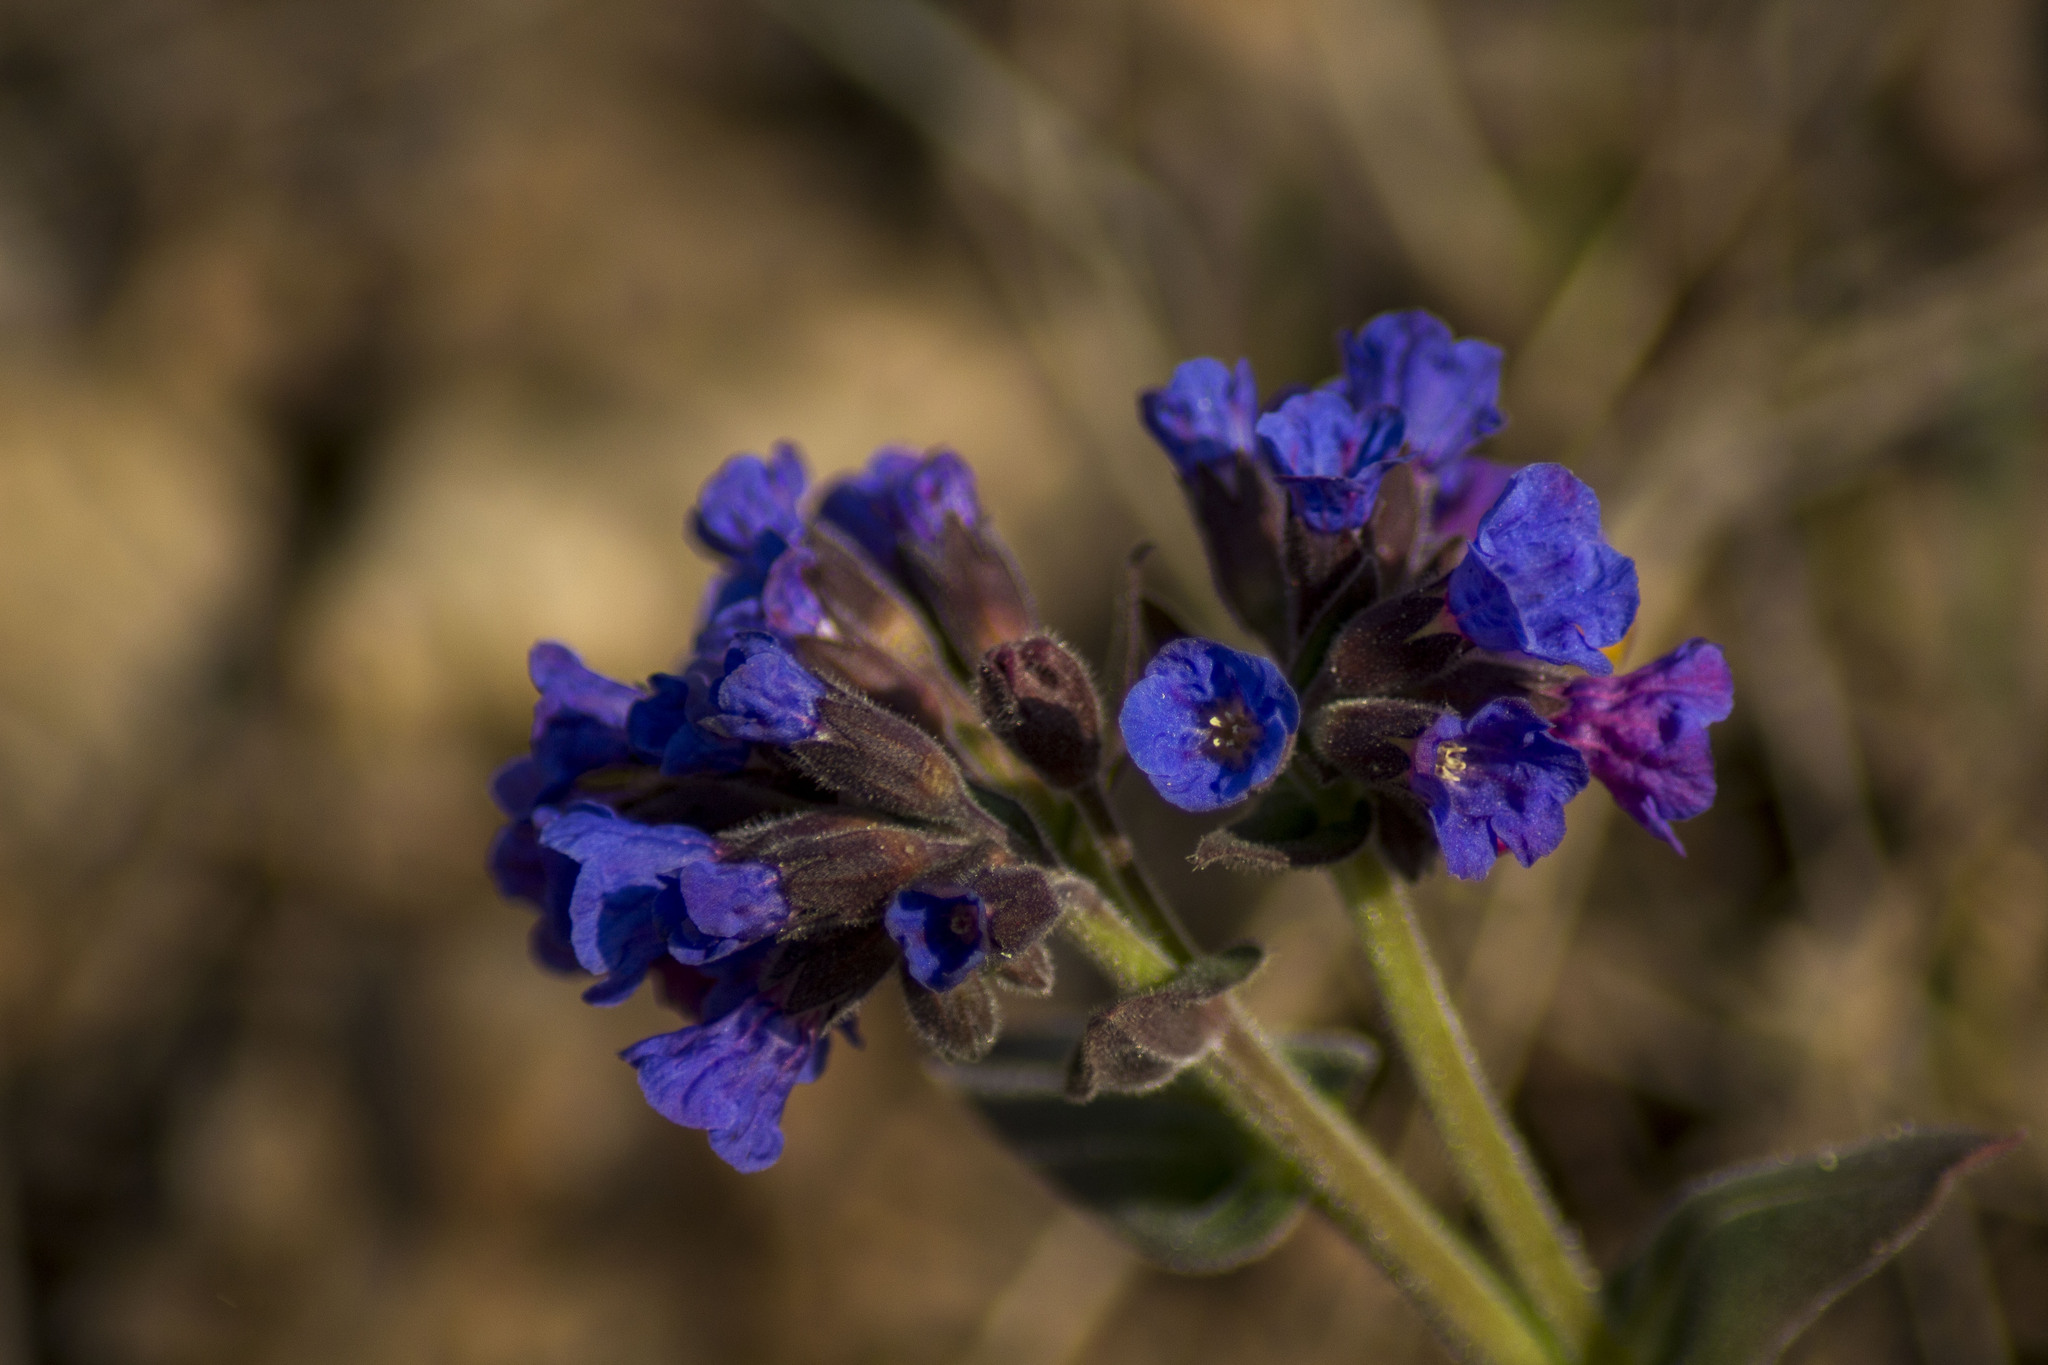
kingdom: Plantae
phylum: Tracheophyta
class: Magnoliopsida
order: Boraginales
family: Boraginaceae
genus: Pulmonaria
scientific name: Pulmonaria mollis
